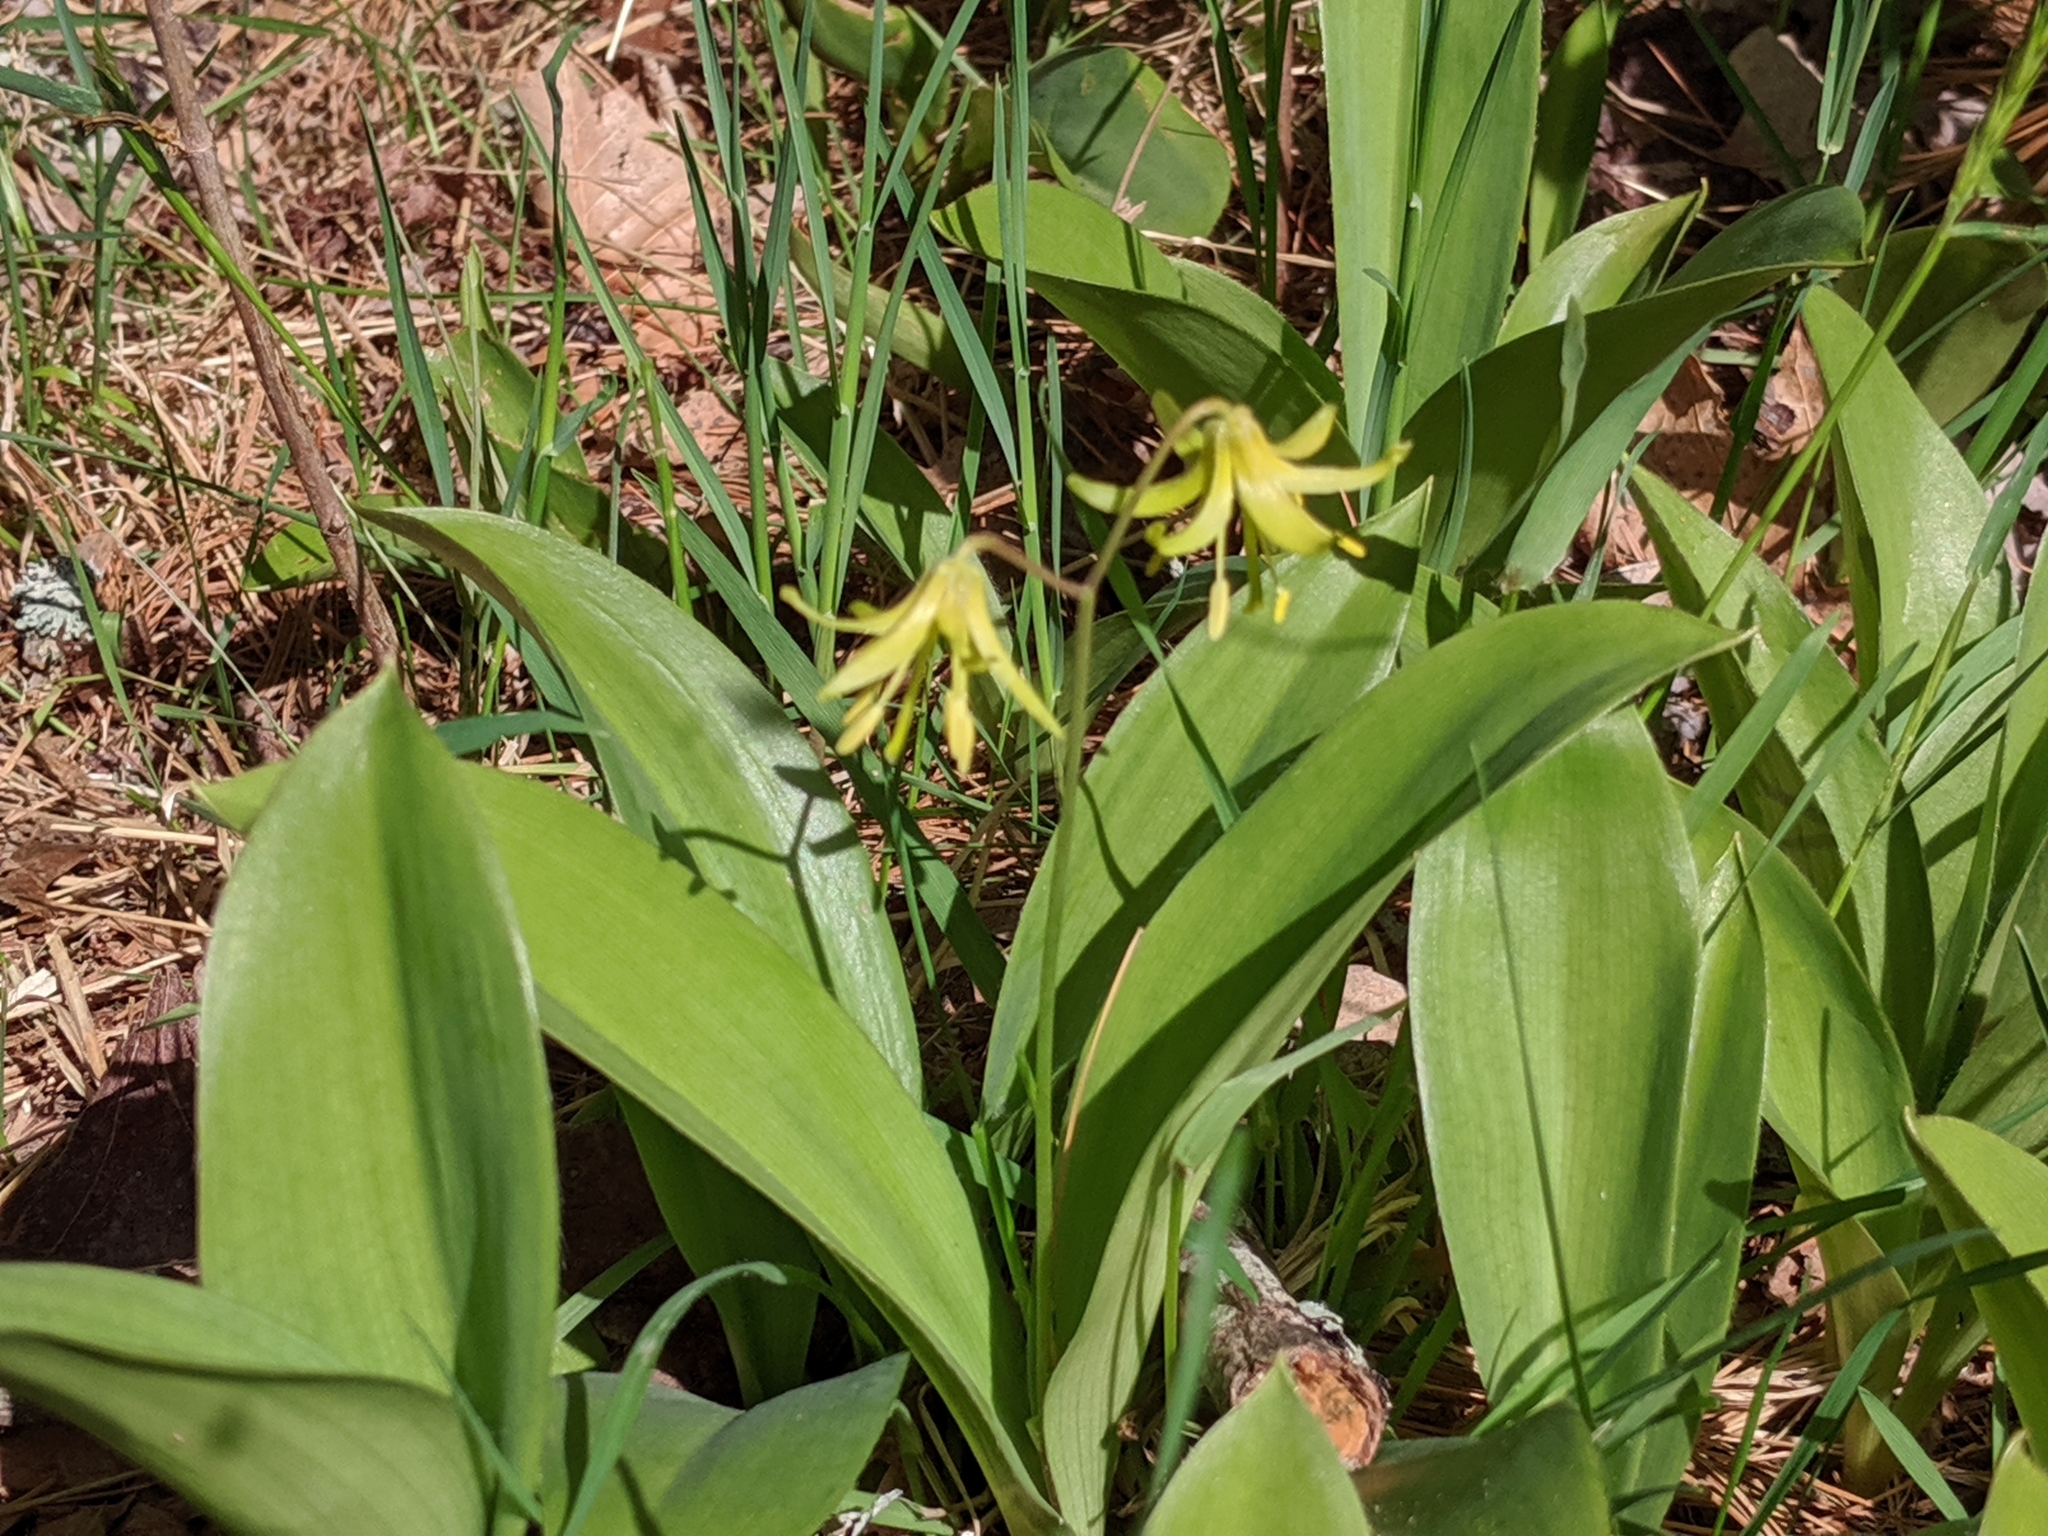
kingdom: Plantae
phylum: Tracheophyta
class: Liliopsida
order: Liliales
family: Liliaceae
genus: Clintonia
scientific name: Clintonia borealis
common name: Yellow clintonia
